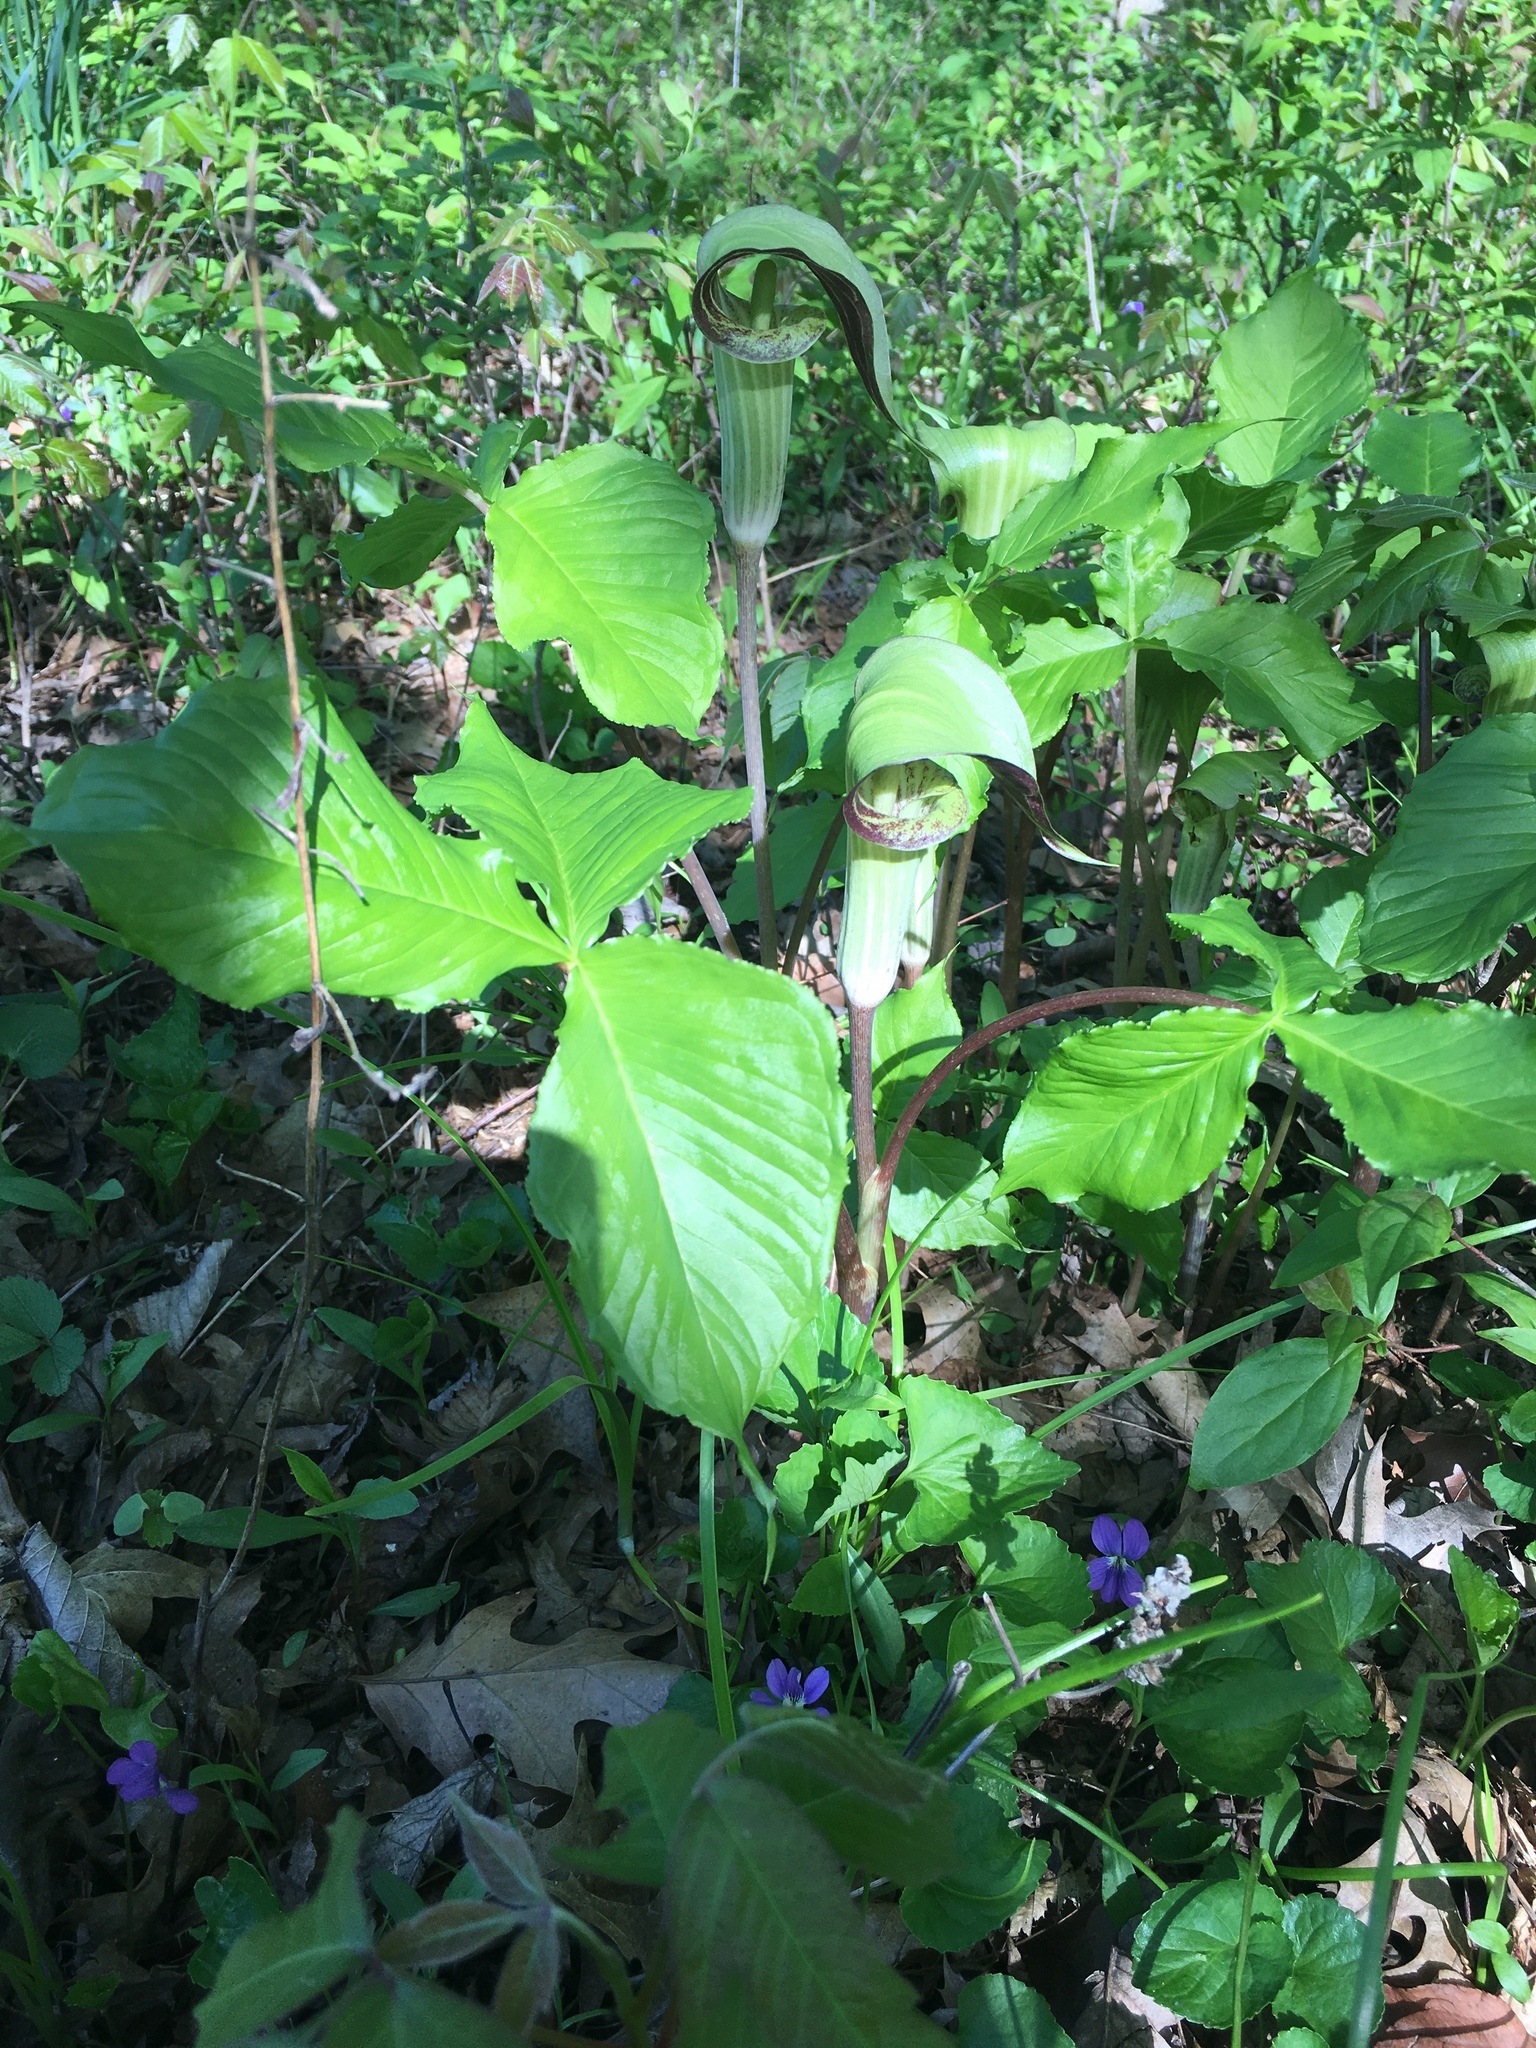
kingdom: Plantae
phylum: Tracheophyta
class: Liliopsida
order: Alismatales
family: Araceae
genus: Arisaema
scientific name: Arisaema triphyllum
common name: Jack-in-the-pulpit
